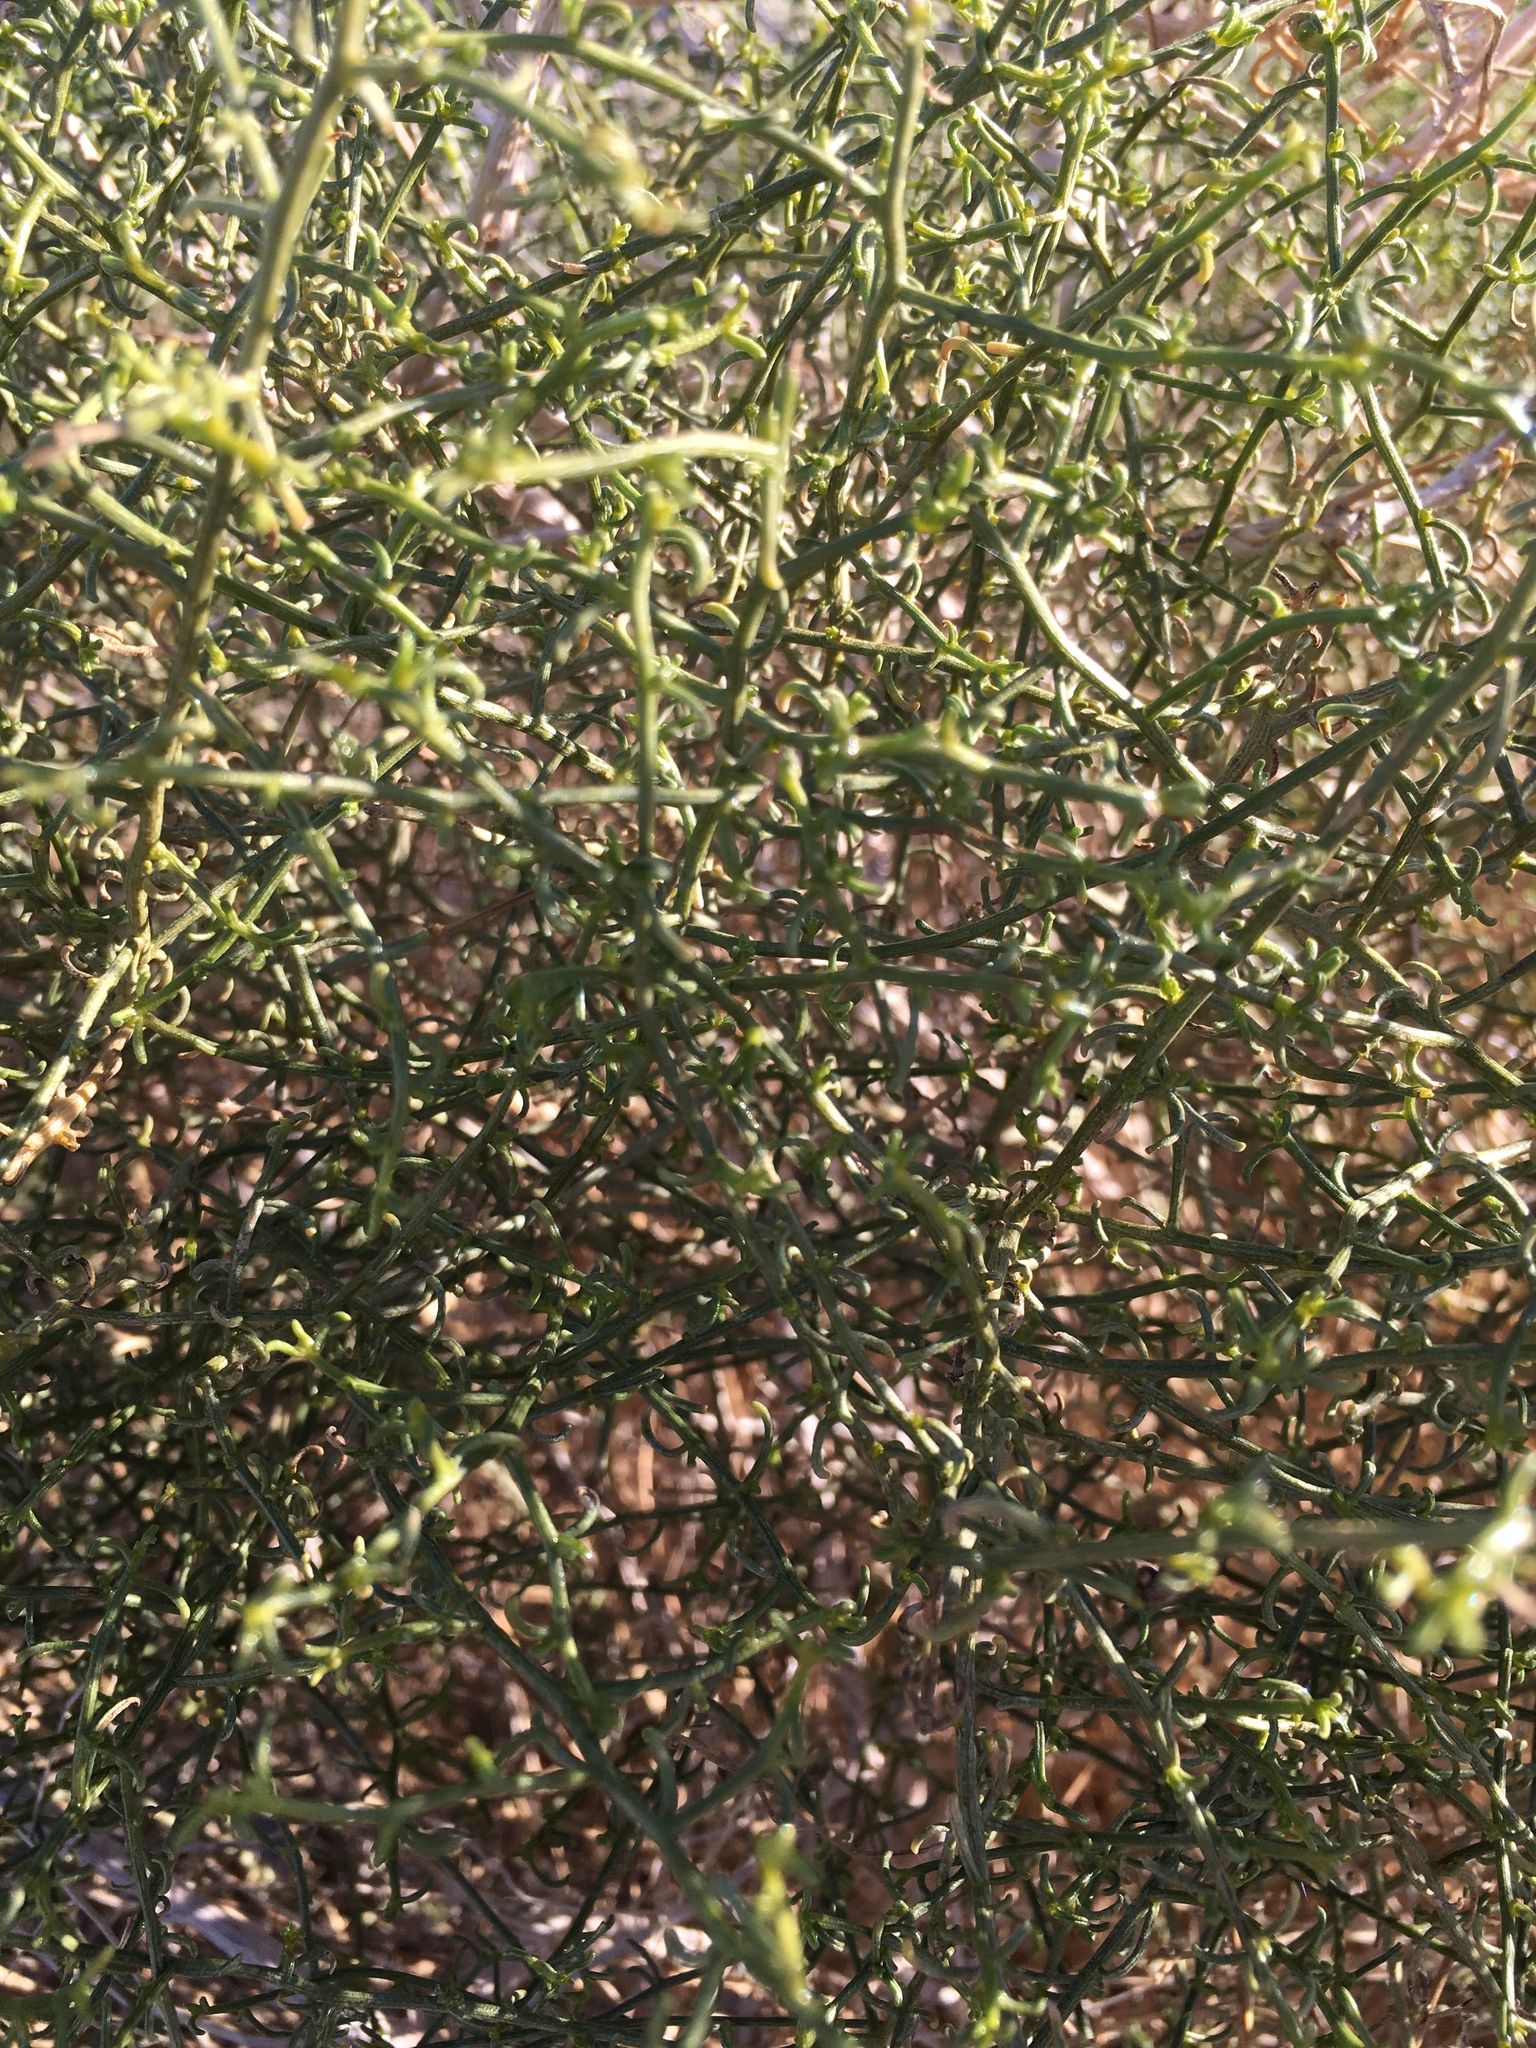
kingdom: Plantae
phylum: Tracheophyta
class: Magnoliopsida
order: Asterales
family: Asteraceae
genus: Ambrosia
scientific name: Ambrosia salsola
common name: Burrobrush
